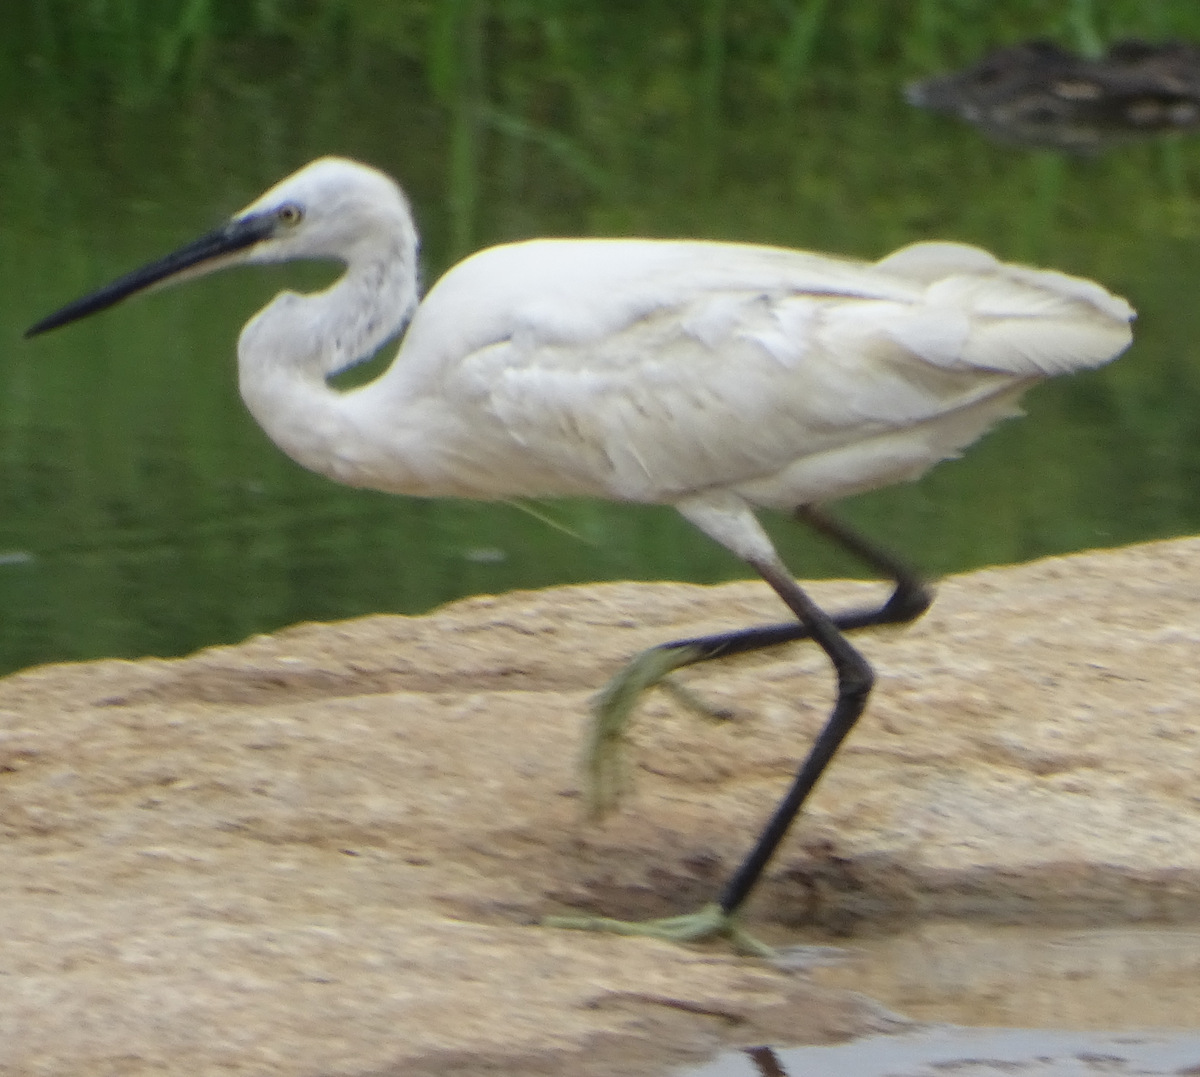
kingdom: Animalia
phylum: Chordata
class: Aves
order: Pelecaniformes
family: Ardeidae
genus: Egretta
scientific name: Egretta garzetta
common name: Little egret
